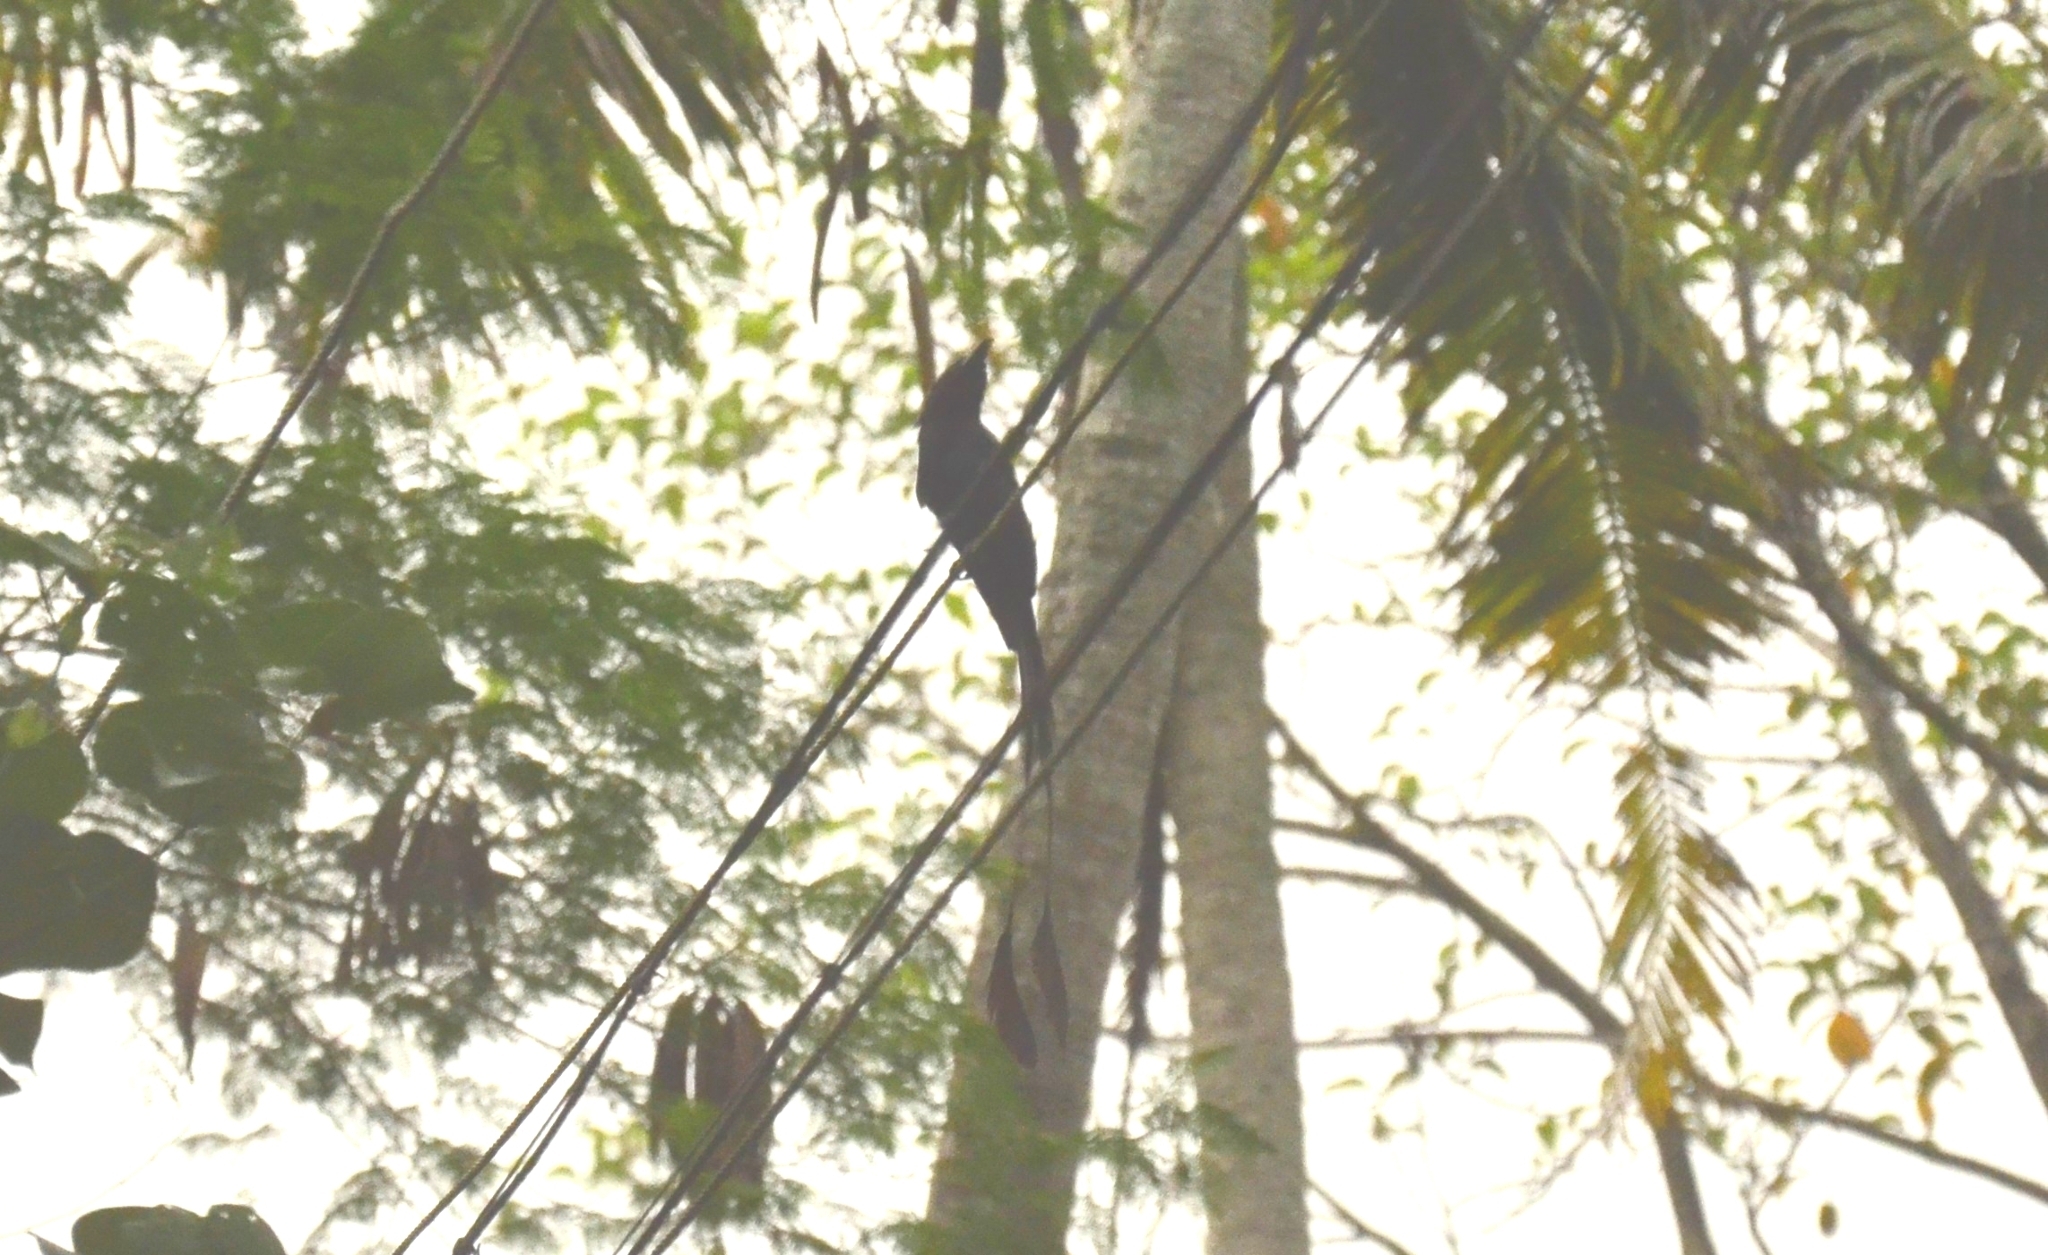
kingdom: Animalia
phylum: Chordata
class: Aves
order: Passeriformes
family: Dicruridae
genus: Dicrurus
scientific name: Dicrurus paradiseus
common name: Greater racket-tailed drongo
